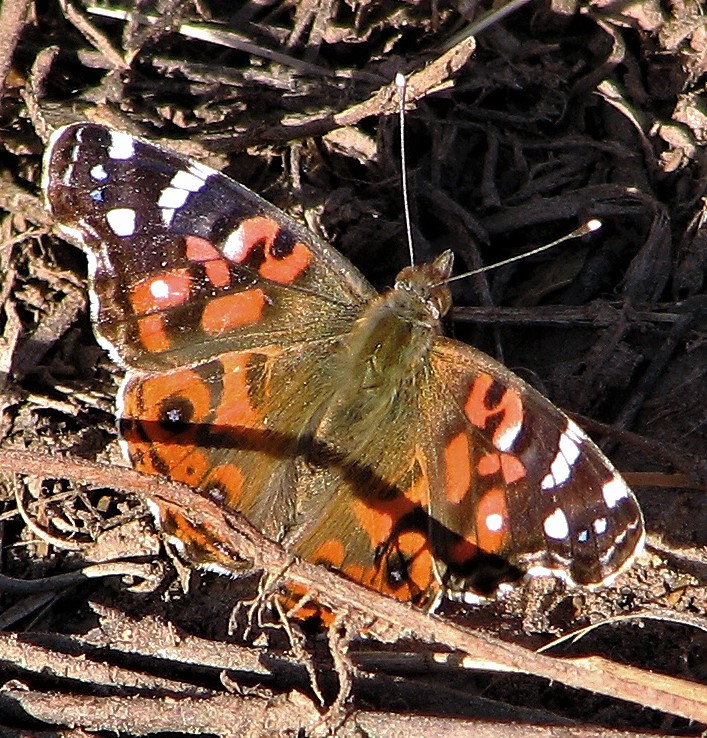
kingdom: Animalia
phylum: Arthropoda
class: Insecta
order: Lepidoptera
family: Nymphalidae
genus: Vanessa
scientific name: Vanessa braziliensis
